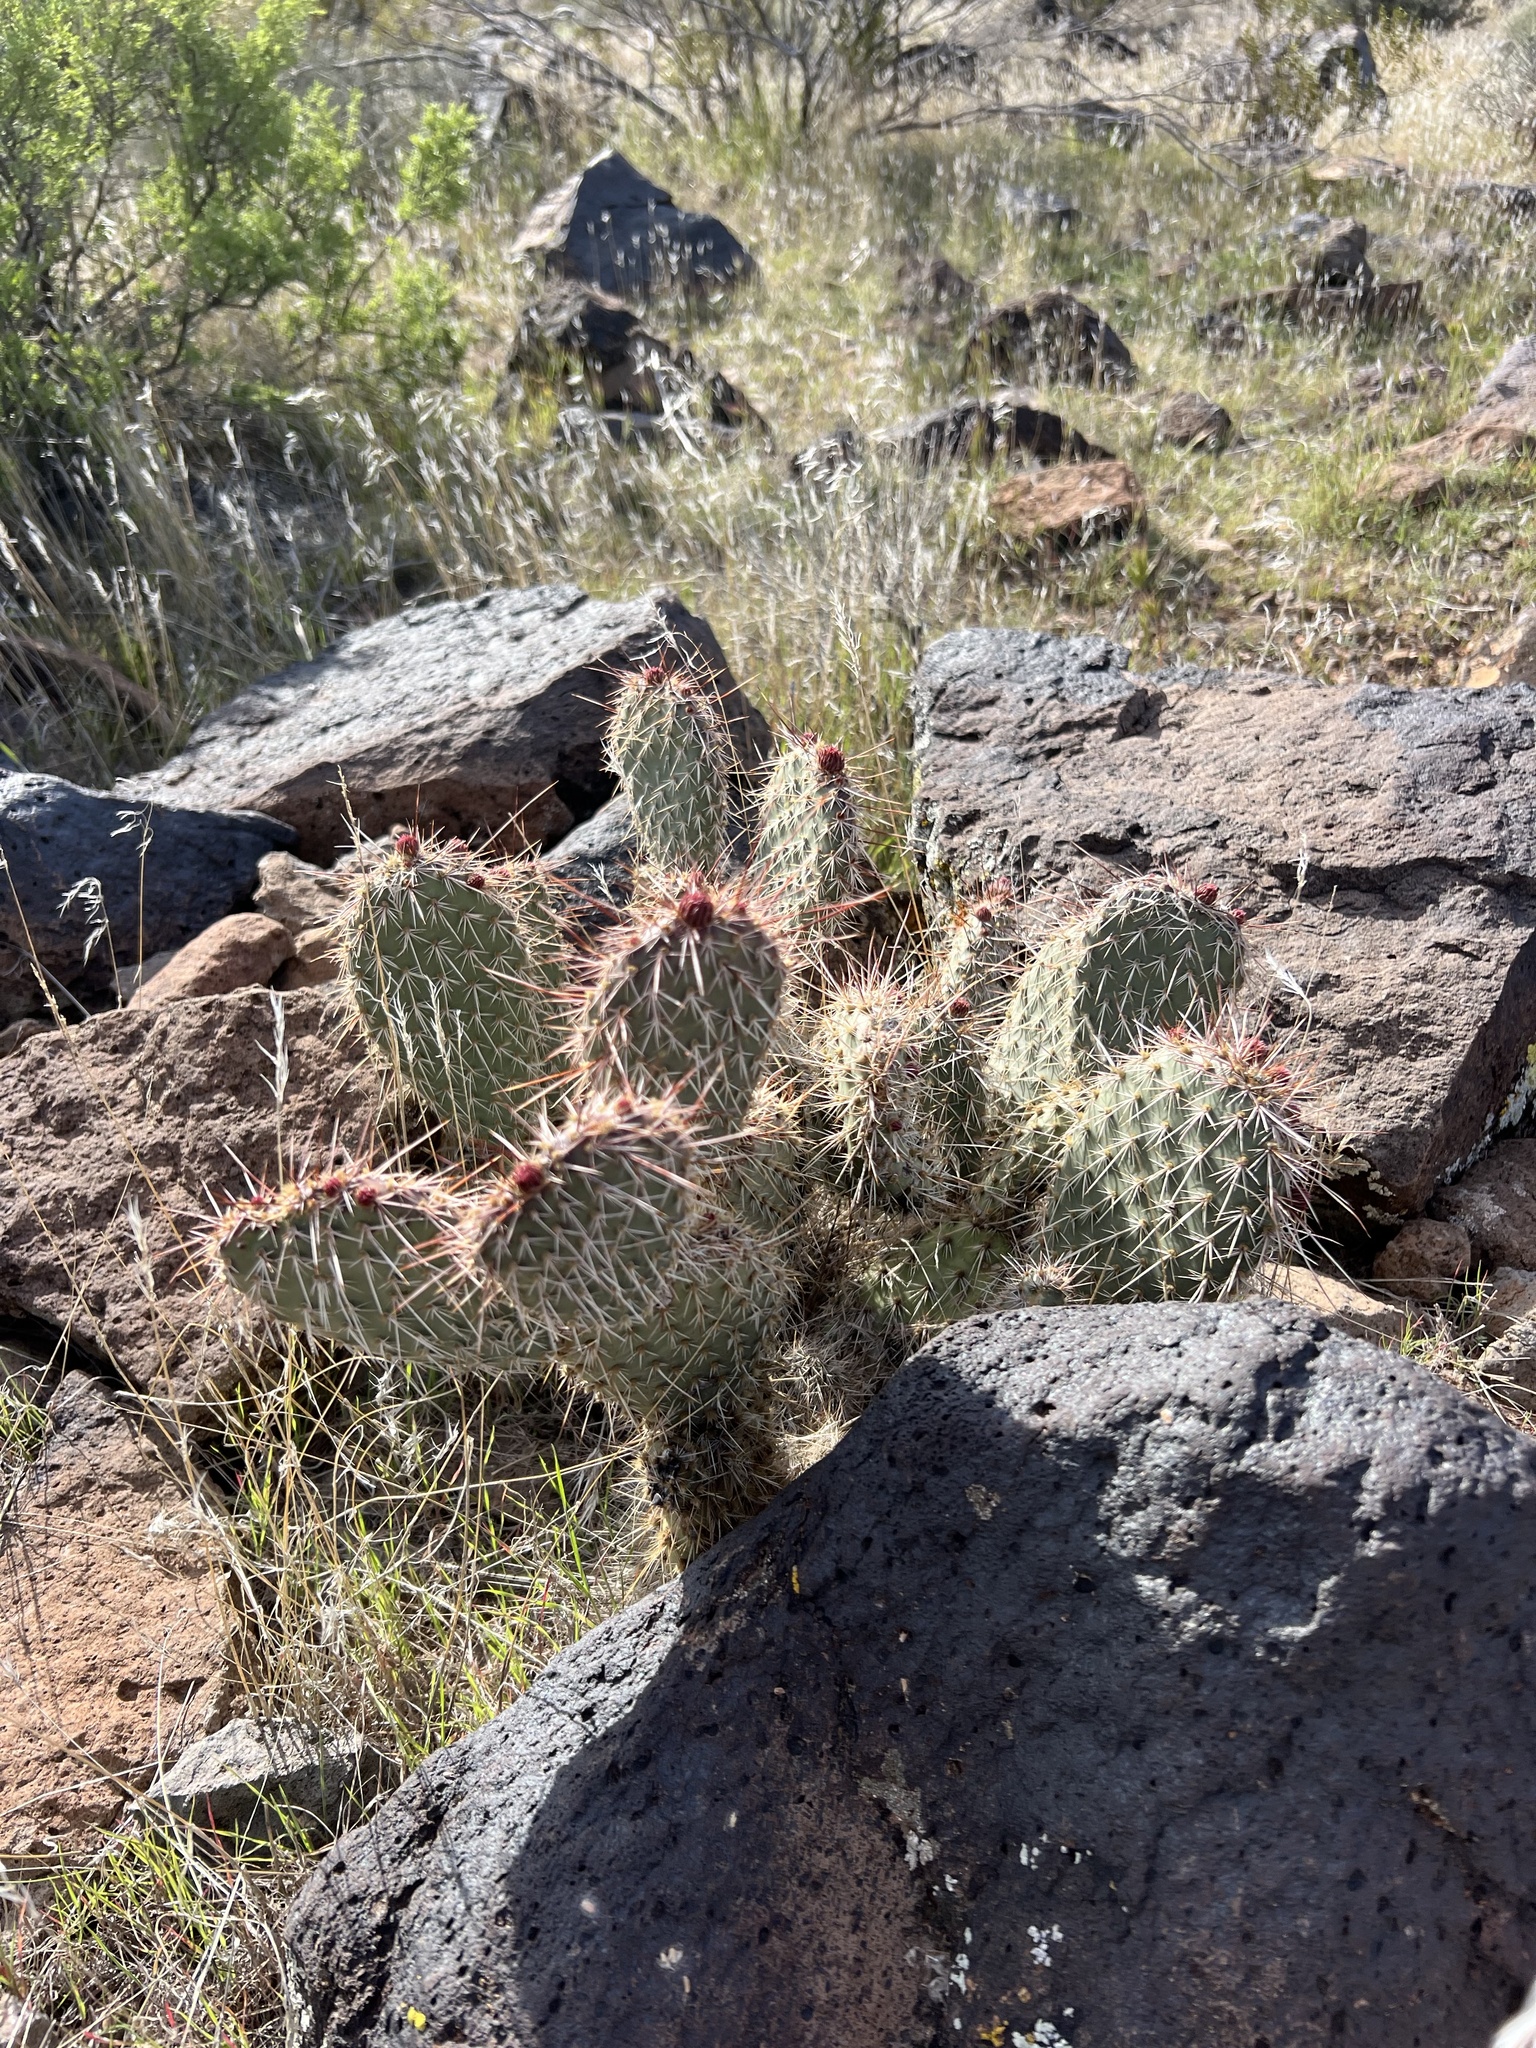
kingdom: Plantae
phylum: Tracheophyta
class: Magnoliopsida
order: Caryophyllales
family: Cactaceae
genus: Opuntia
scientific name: Opuntia polyacantha
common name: Plains prickly-pear
